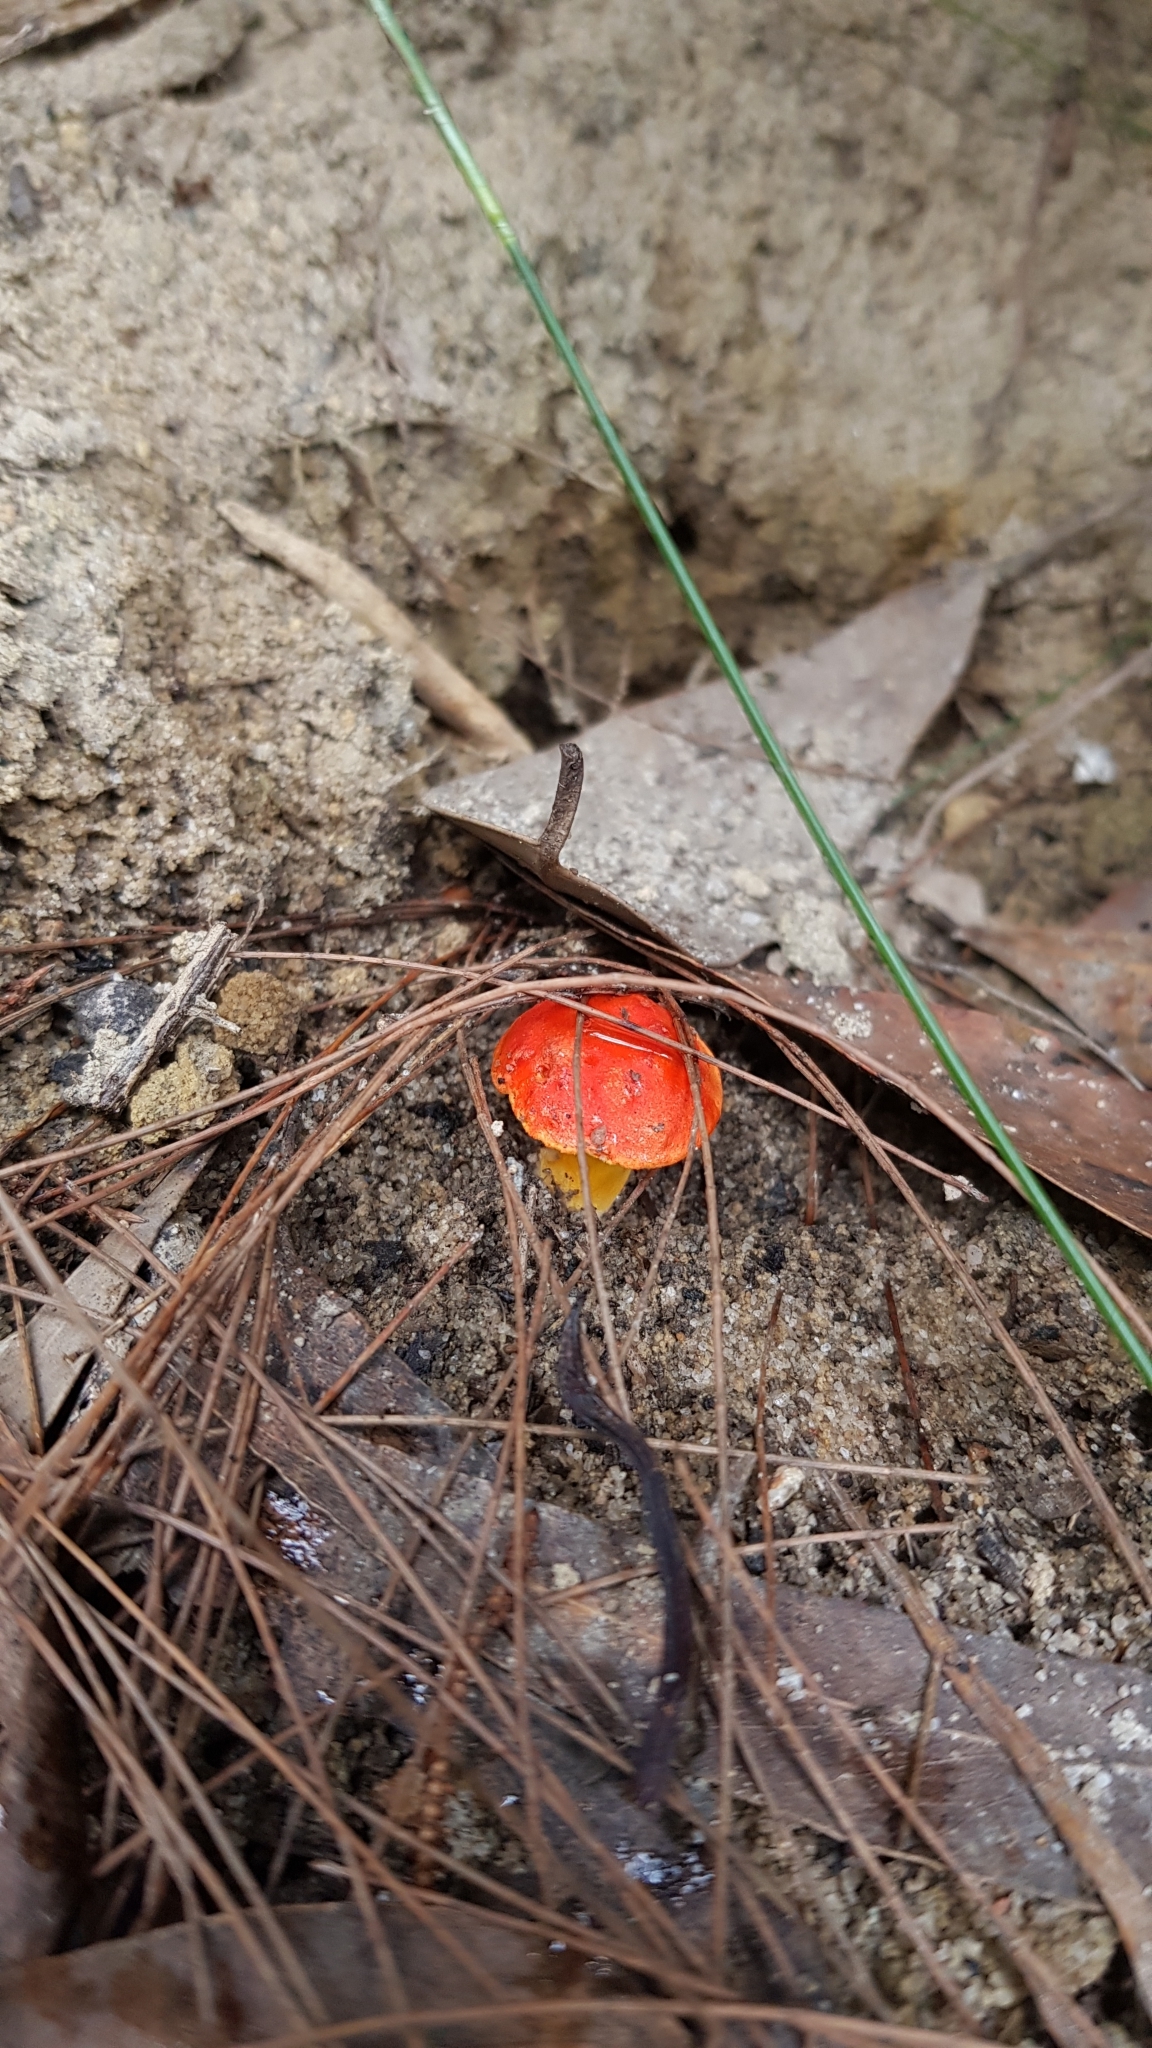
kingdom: Fungi
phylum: Basidiomycota
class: Agaricomycetes
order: Boletales
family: Boletaceae
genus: Tylopilus
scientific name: Tylopilus balloui
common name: Burnt-orange bolete
